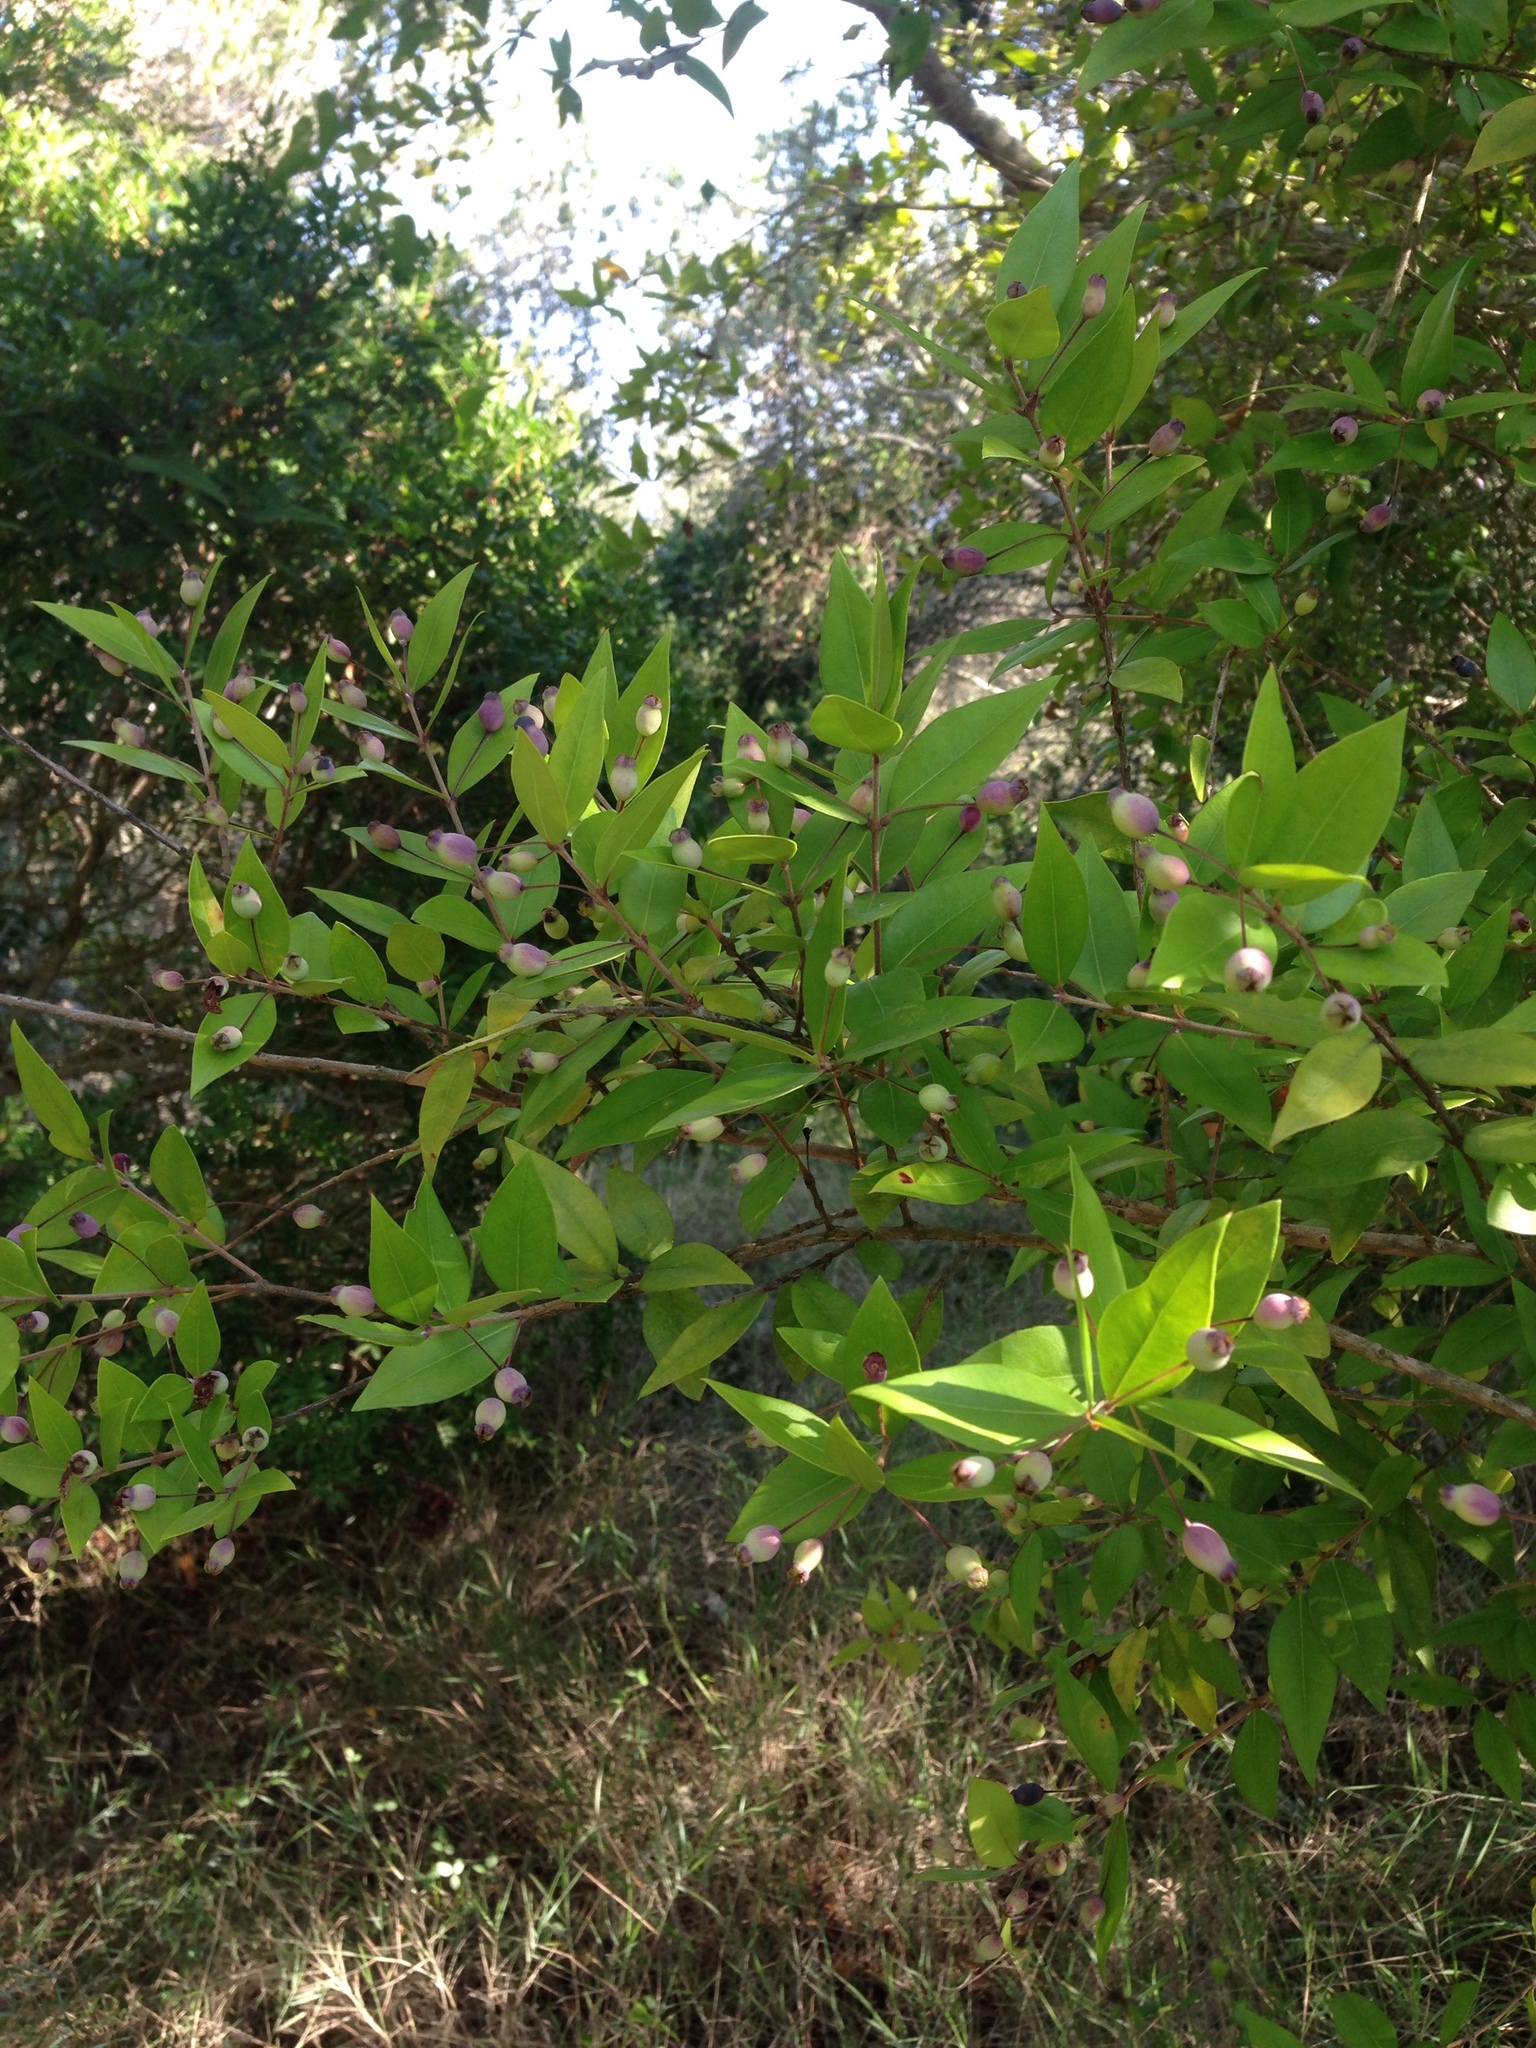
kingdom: Plantae
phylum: Tracheophyta
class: Magnoliopsida
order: Myrtales
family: Myrtaceae
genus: Myrtus
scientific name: Myrtus communis
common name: Myrtle
